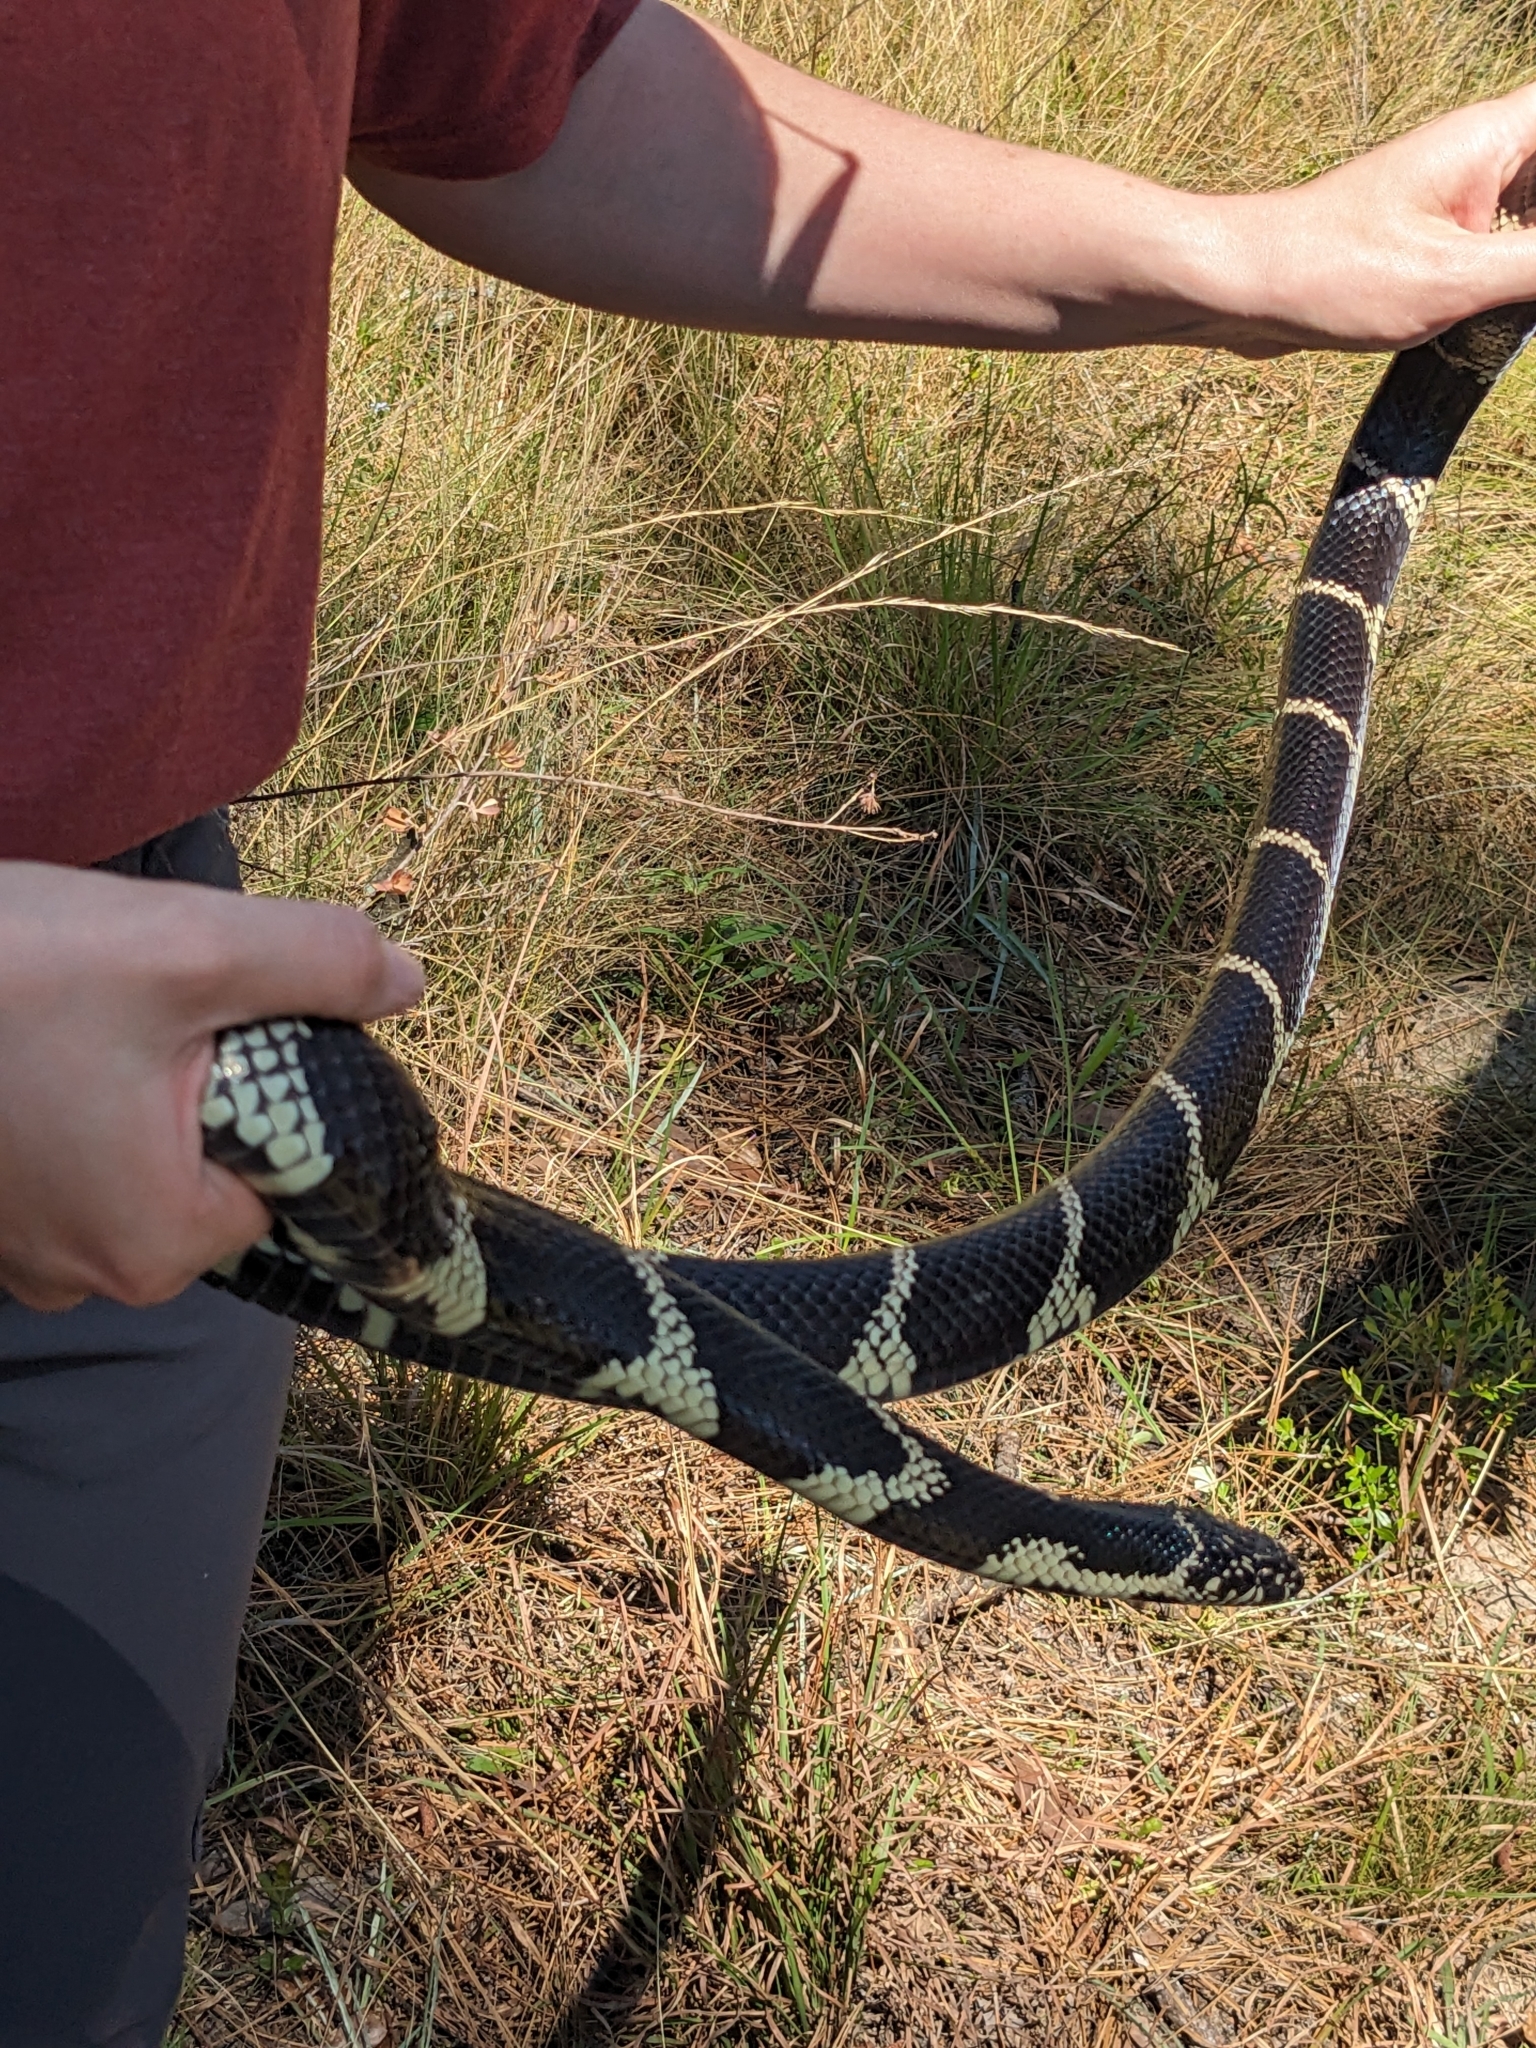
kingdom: Animalia
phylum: Chordata
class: Squamata
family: Colubridae
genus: Lampropeltis
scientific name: Lampropeltis getula
